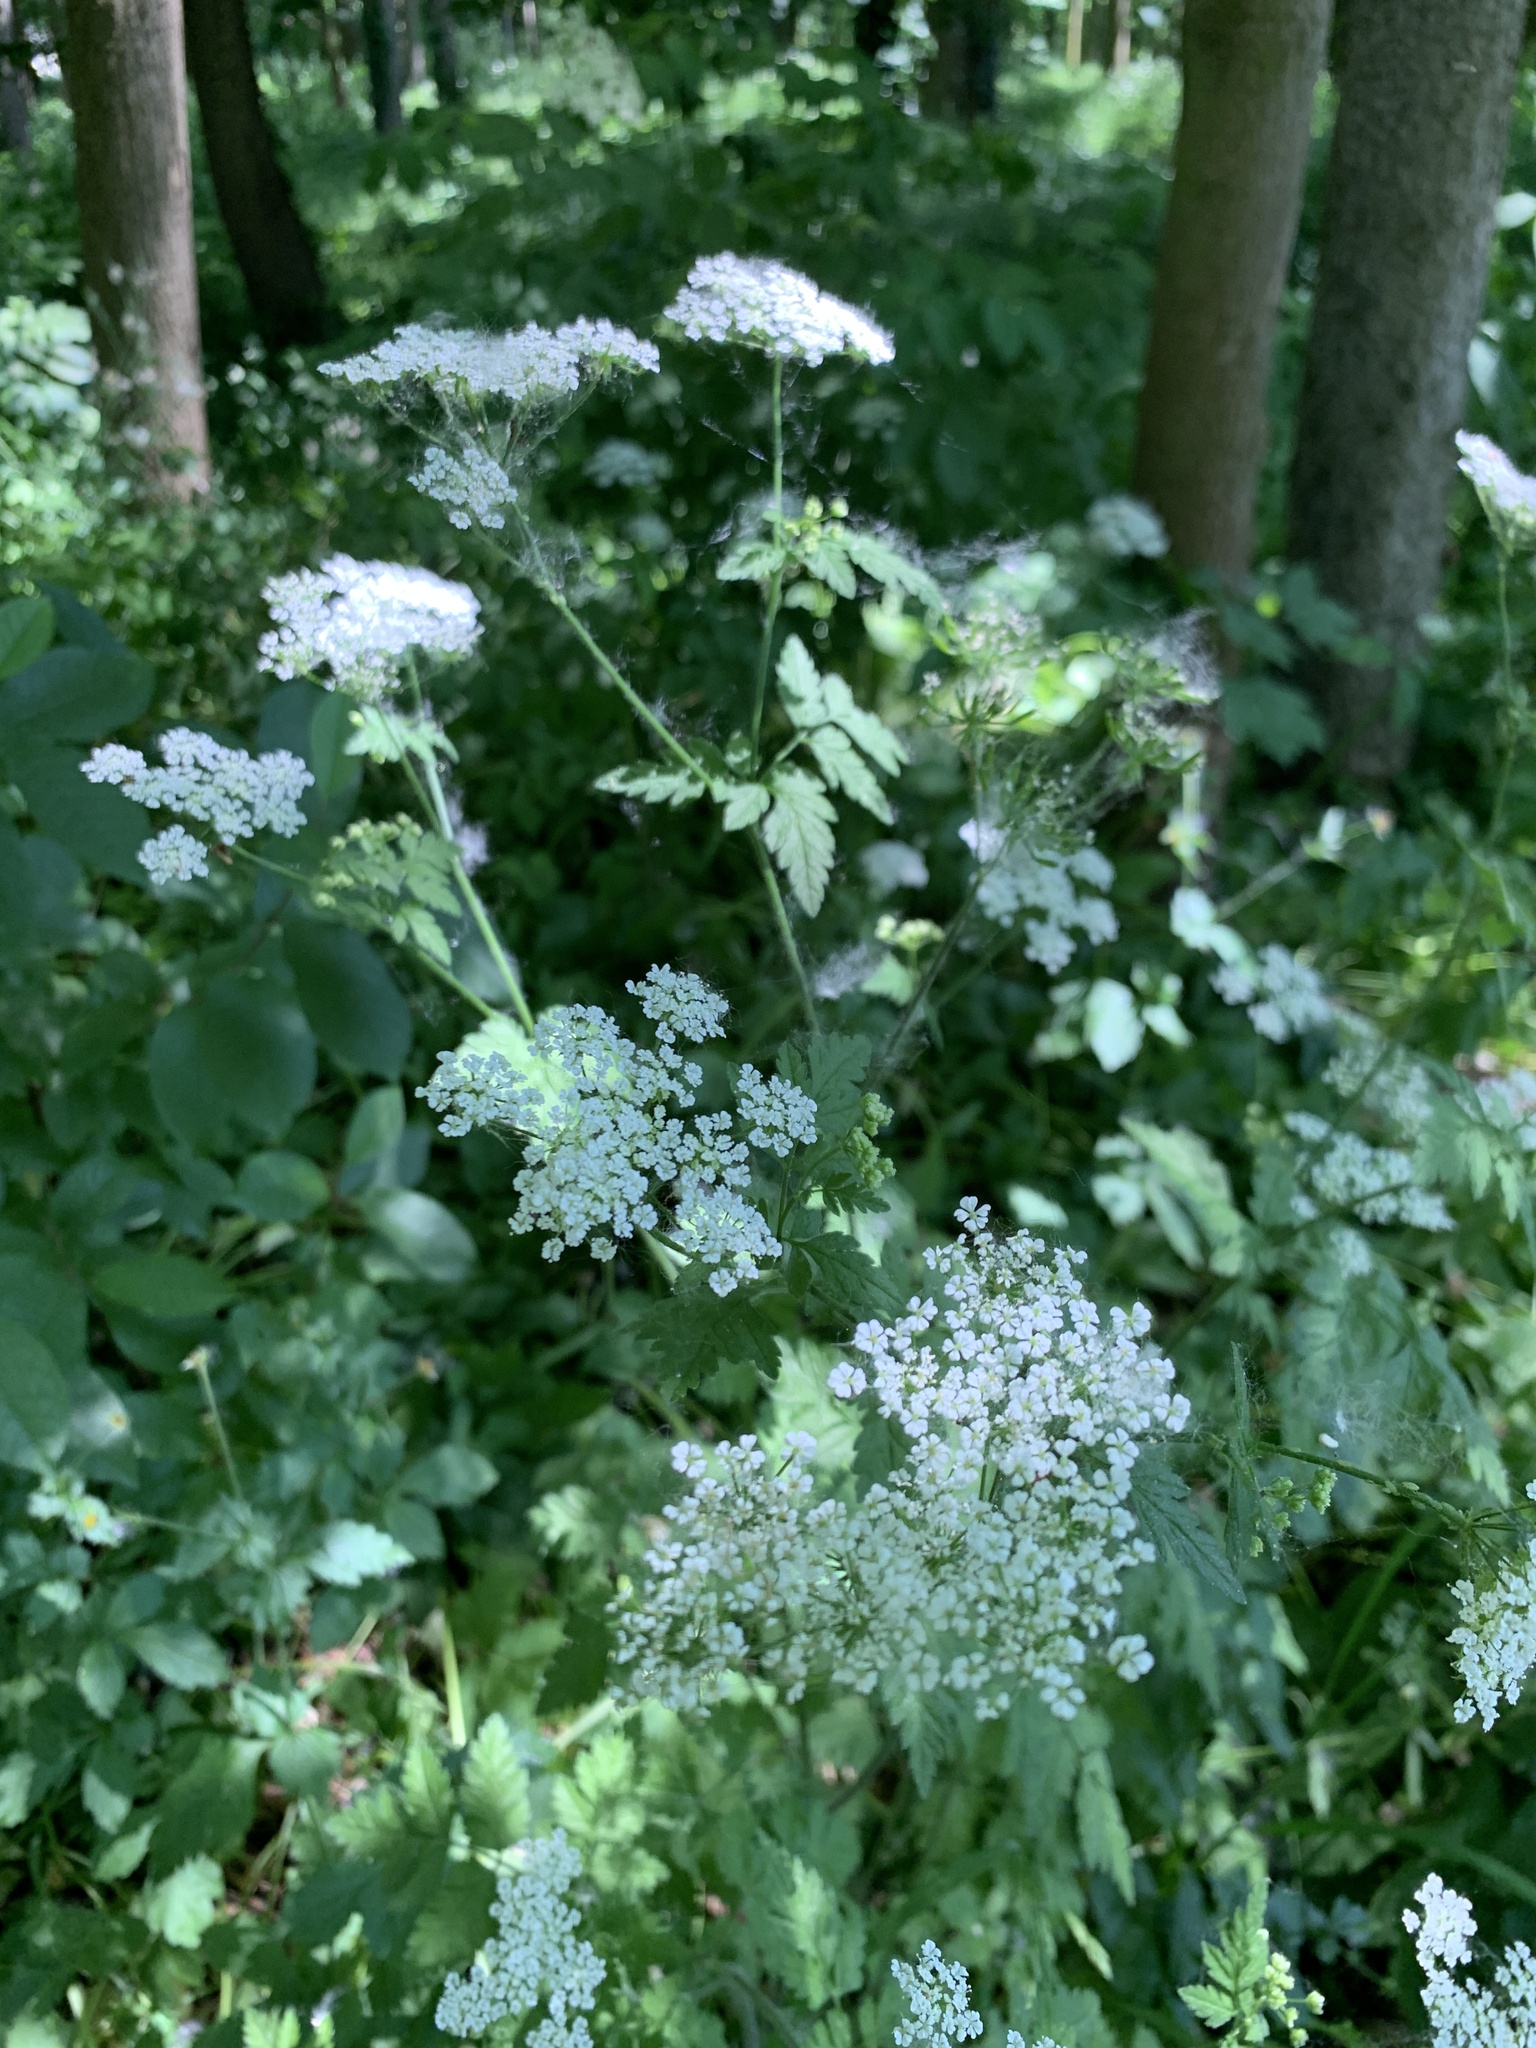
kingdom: Plantae
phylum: Tracheophyta
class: Magnoliopsida
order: Apiales
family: Apiaceae
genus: Chaerophyllum
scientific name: Chaerophyllum temulum
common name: Rough chervil
